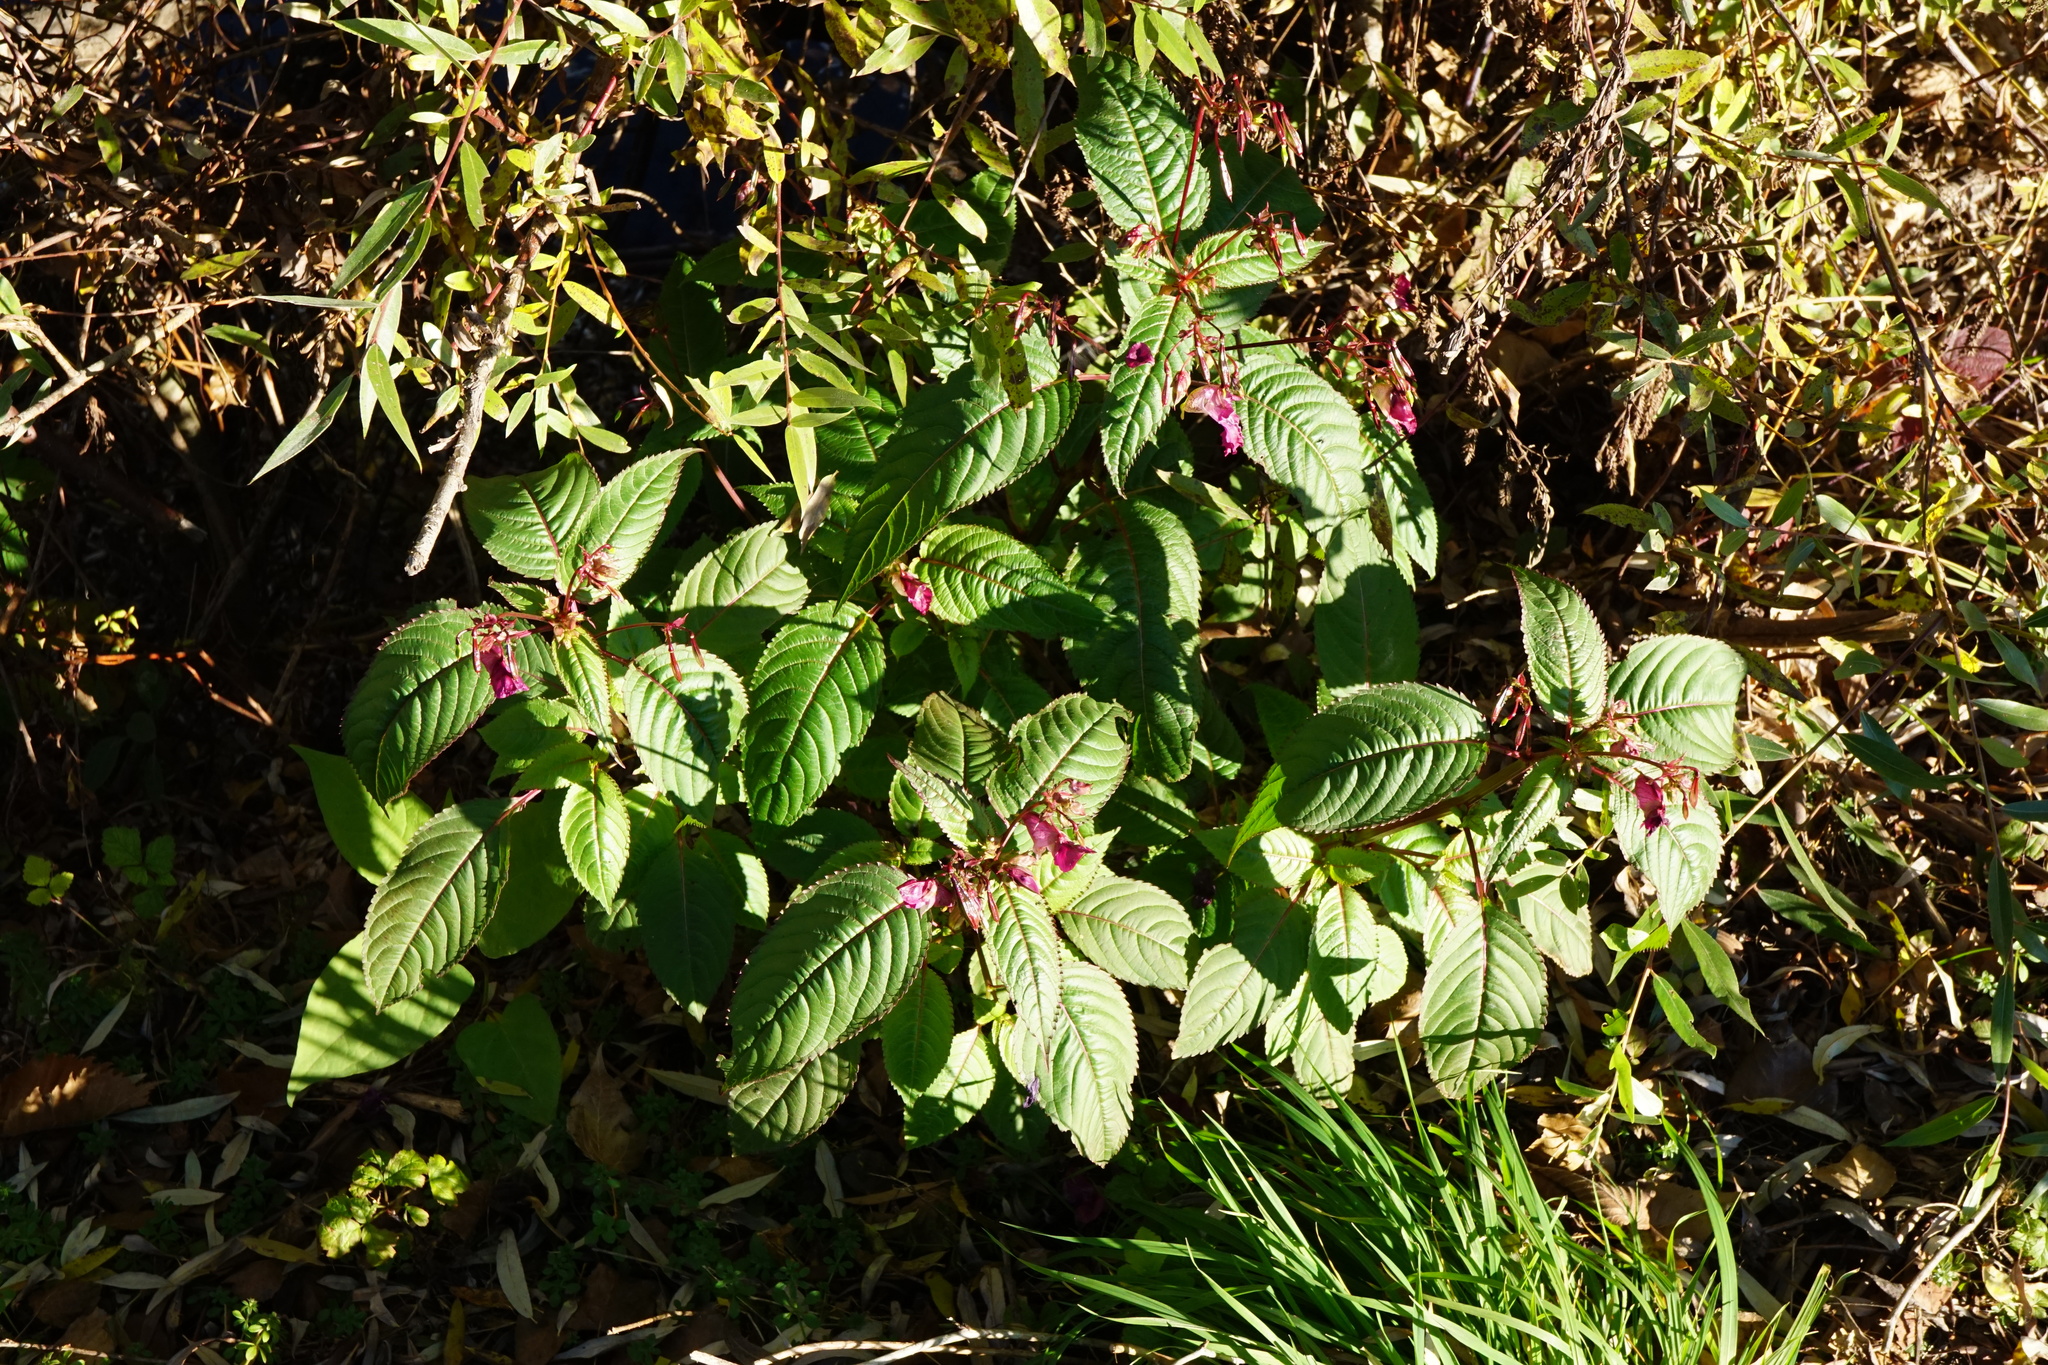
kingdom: Plantae
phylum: Tracheophyta
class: Magnoliopsida
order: Ericales
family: Balsaminaceae
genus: Impatiens
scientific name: Impatiens glandulifera
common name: Himalayan balsam
